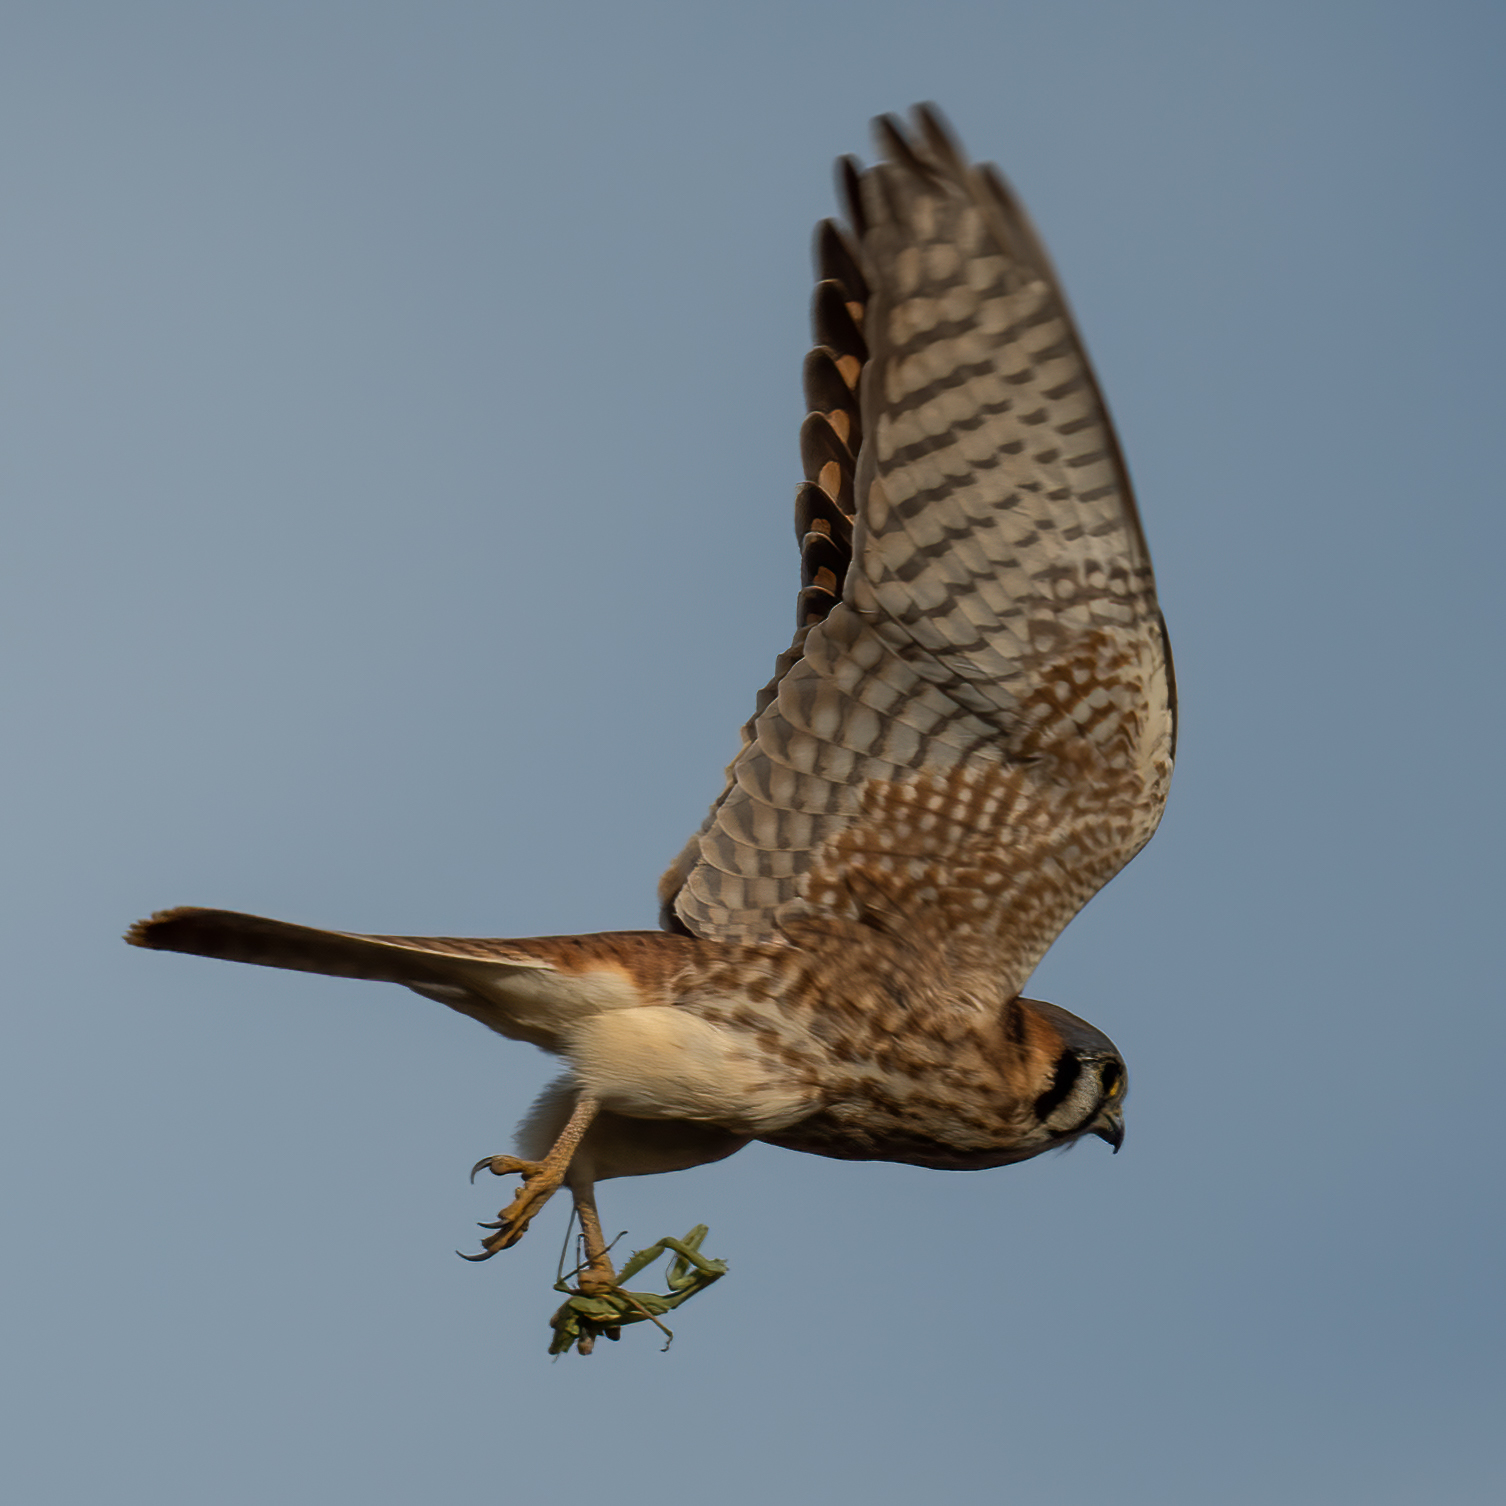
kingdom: Animalia
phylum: Chordata
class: Aves
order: Falconiformes
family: Falconidae
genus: Falco
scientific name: Falco sparverius
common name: American kestrel
